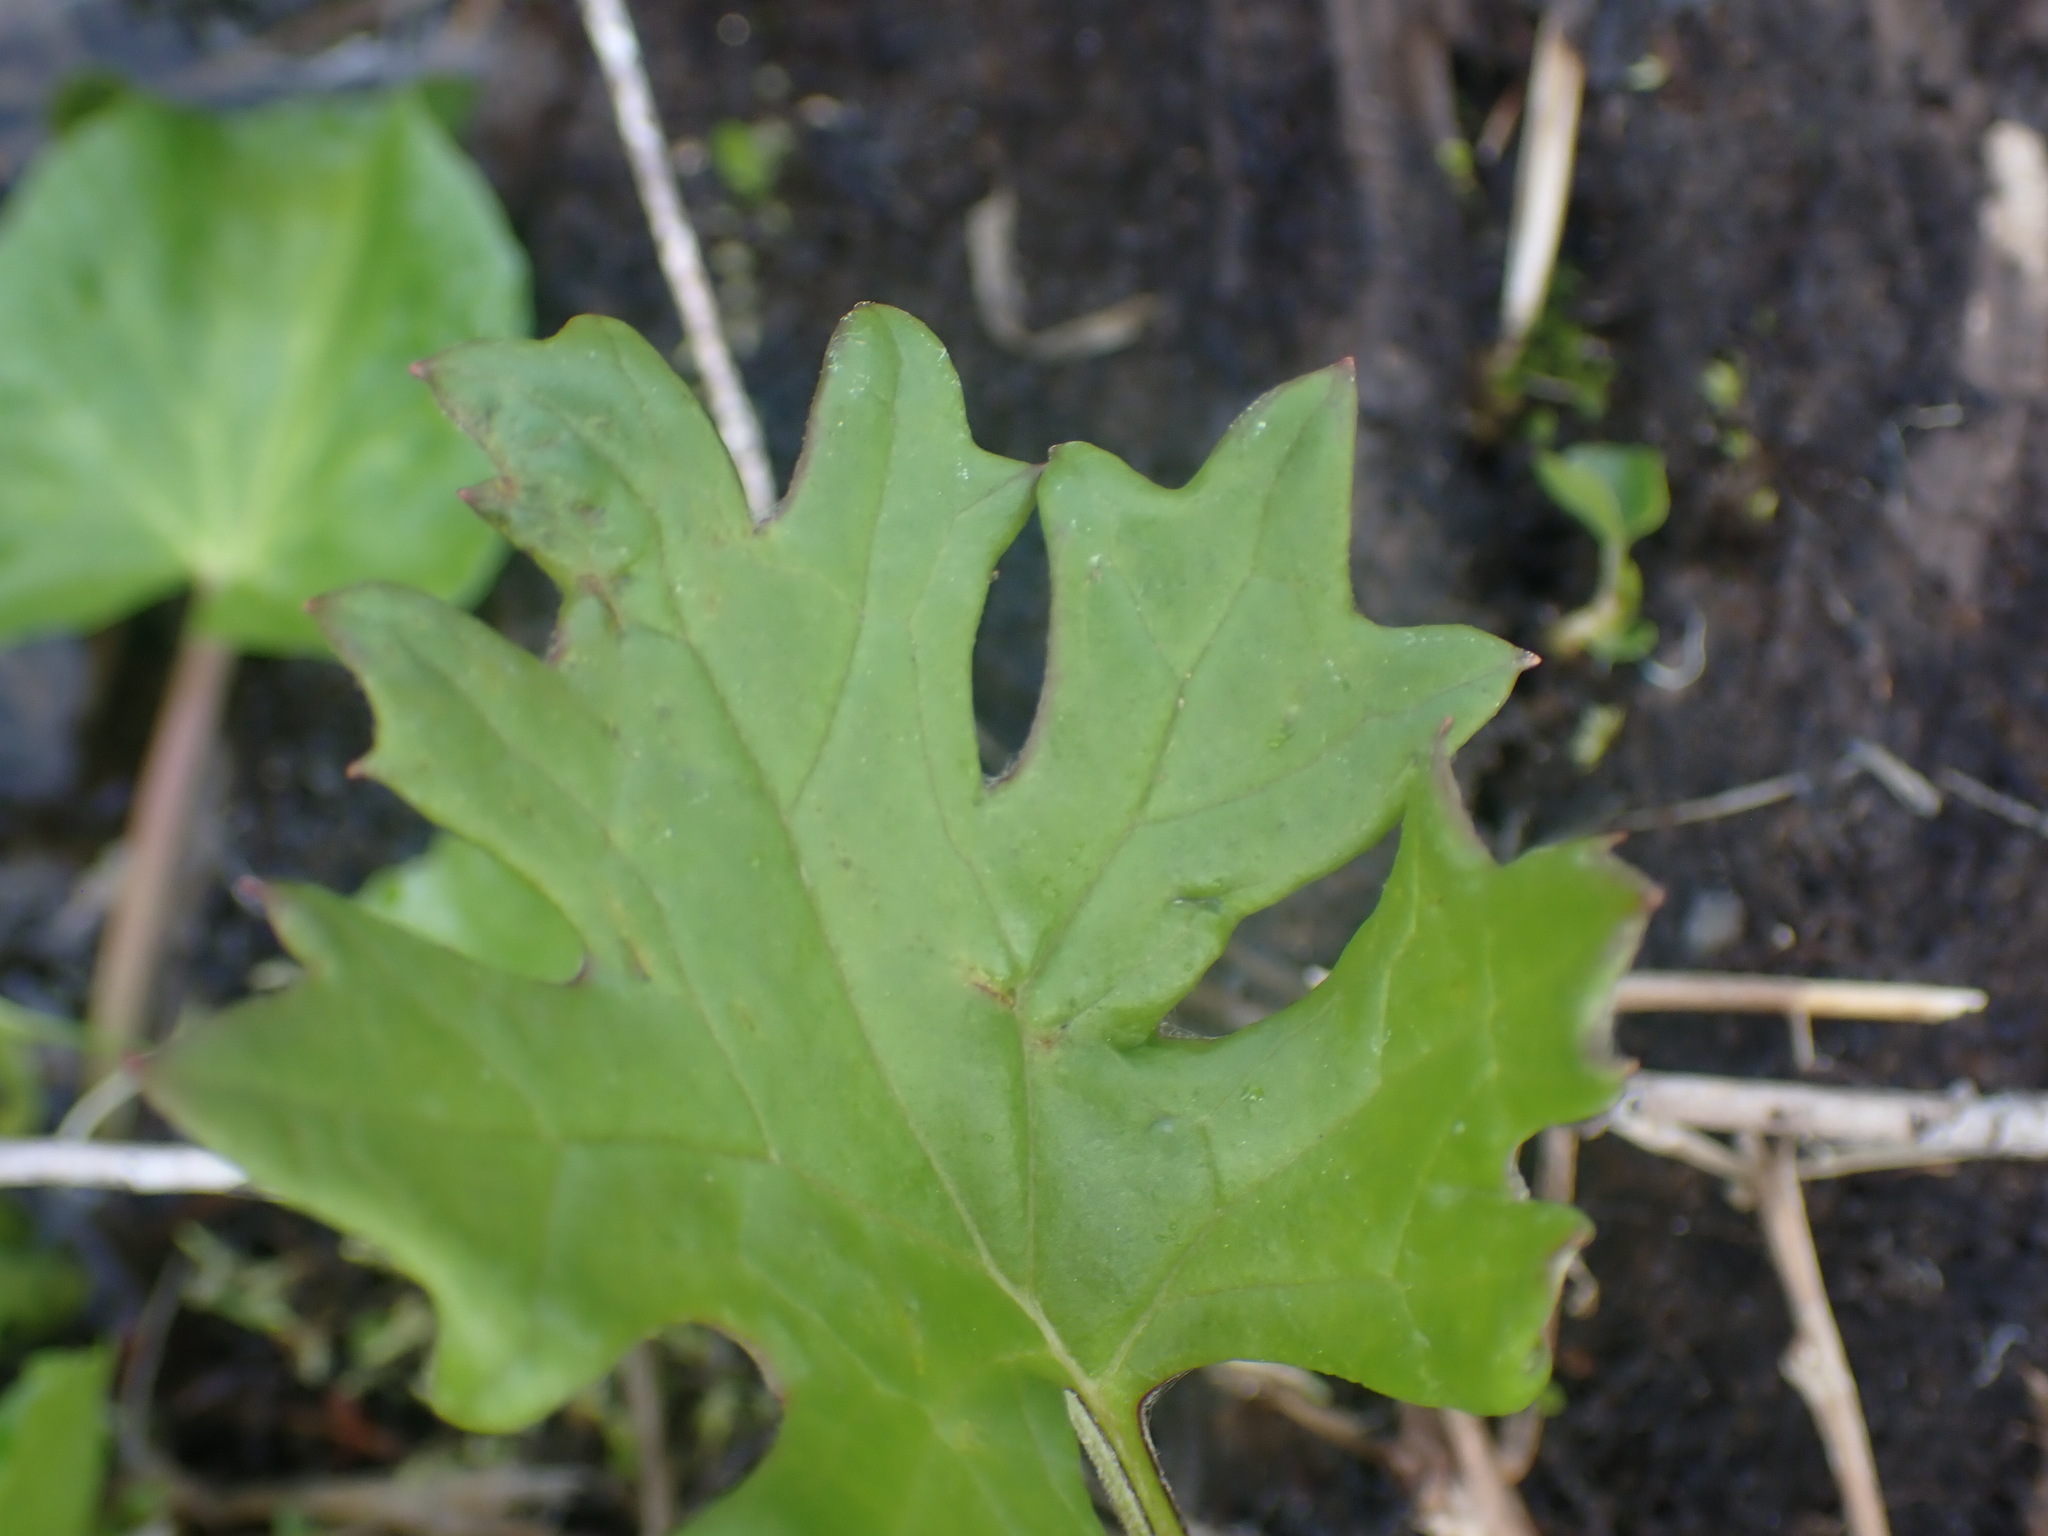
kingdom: Plantae
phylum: Tracheophyta
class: Magnoliopsida
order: Asterales
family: Asteraceae
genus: Petasites
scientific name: Petasites frigidus
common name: Arctic butterbur
